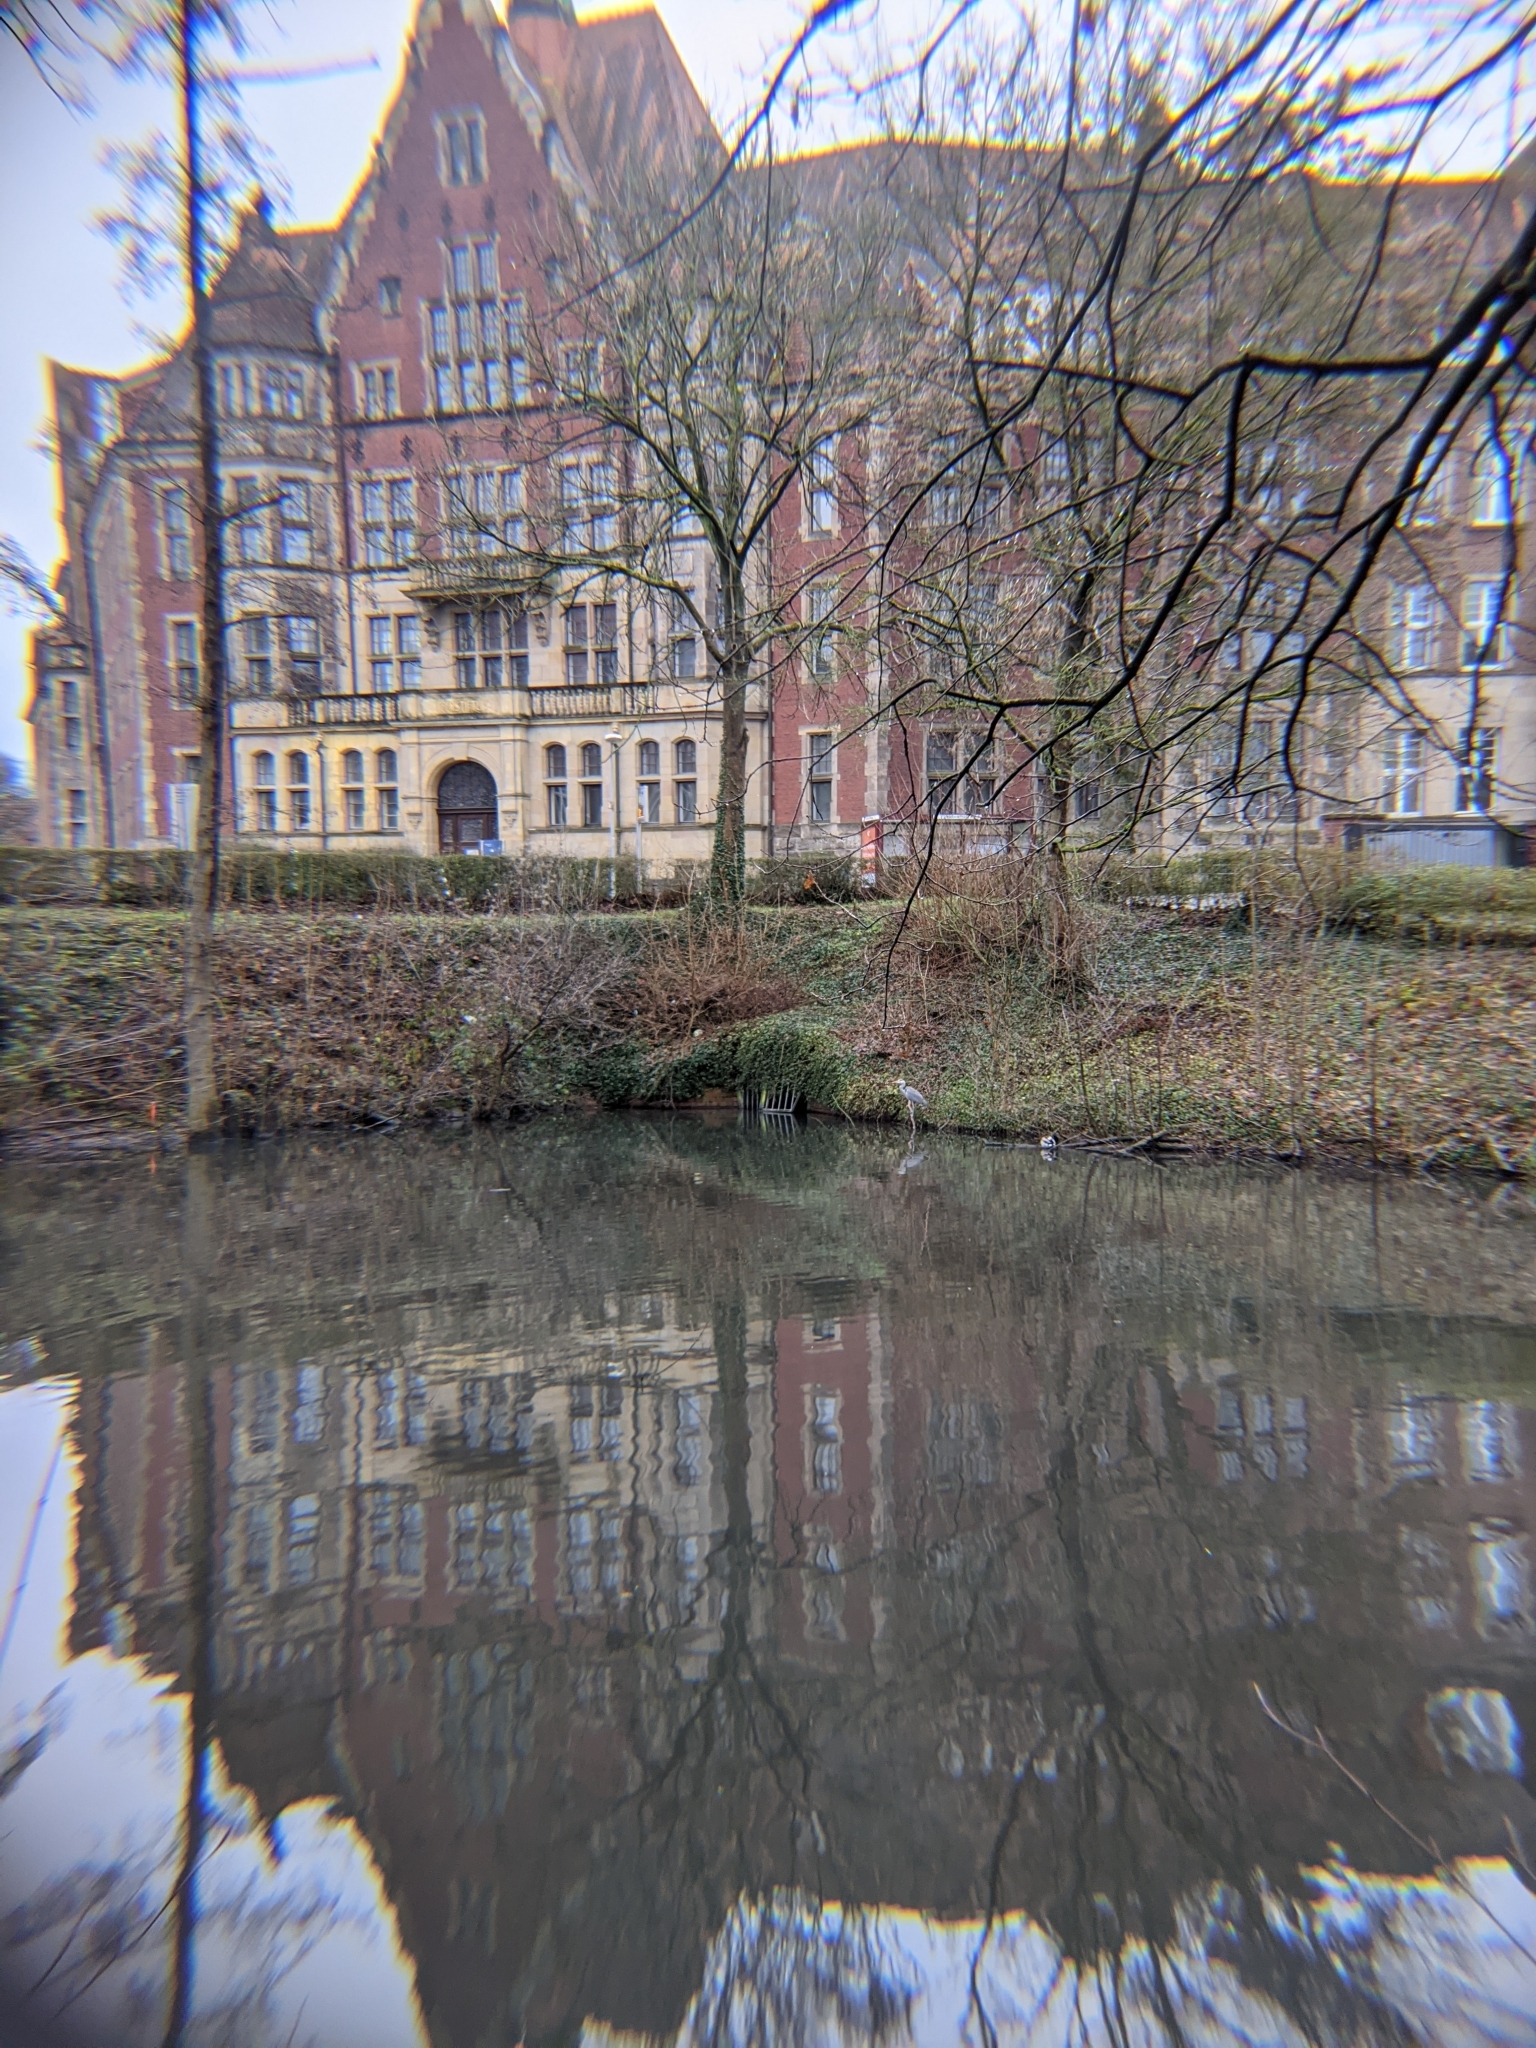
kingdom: Animalia
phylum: Chordata
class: Aves
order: Pelecaniformes
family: Ardeidae
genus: Ardea
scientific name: Ardea cinerea
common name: Grey heron
